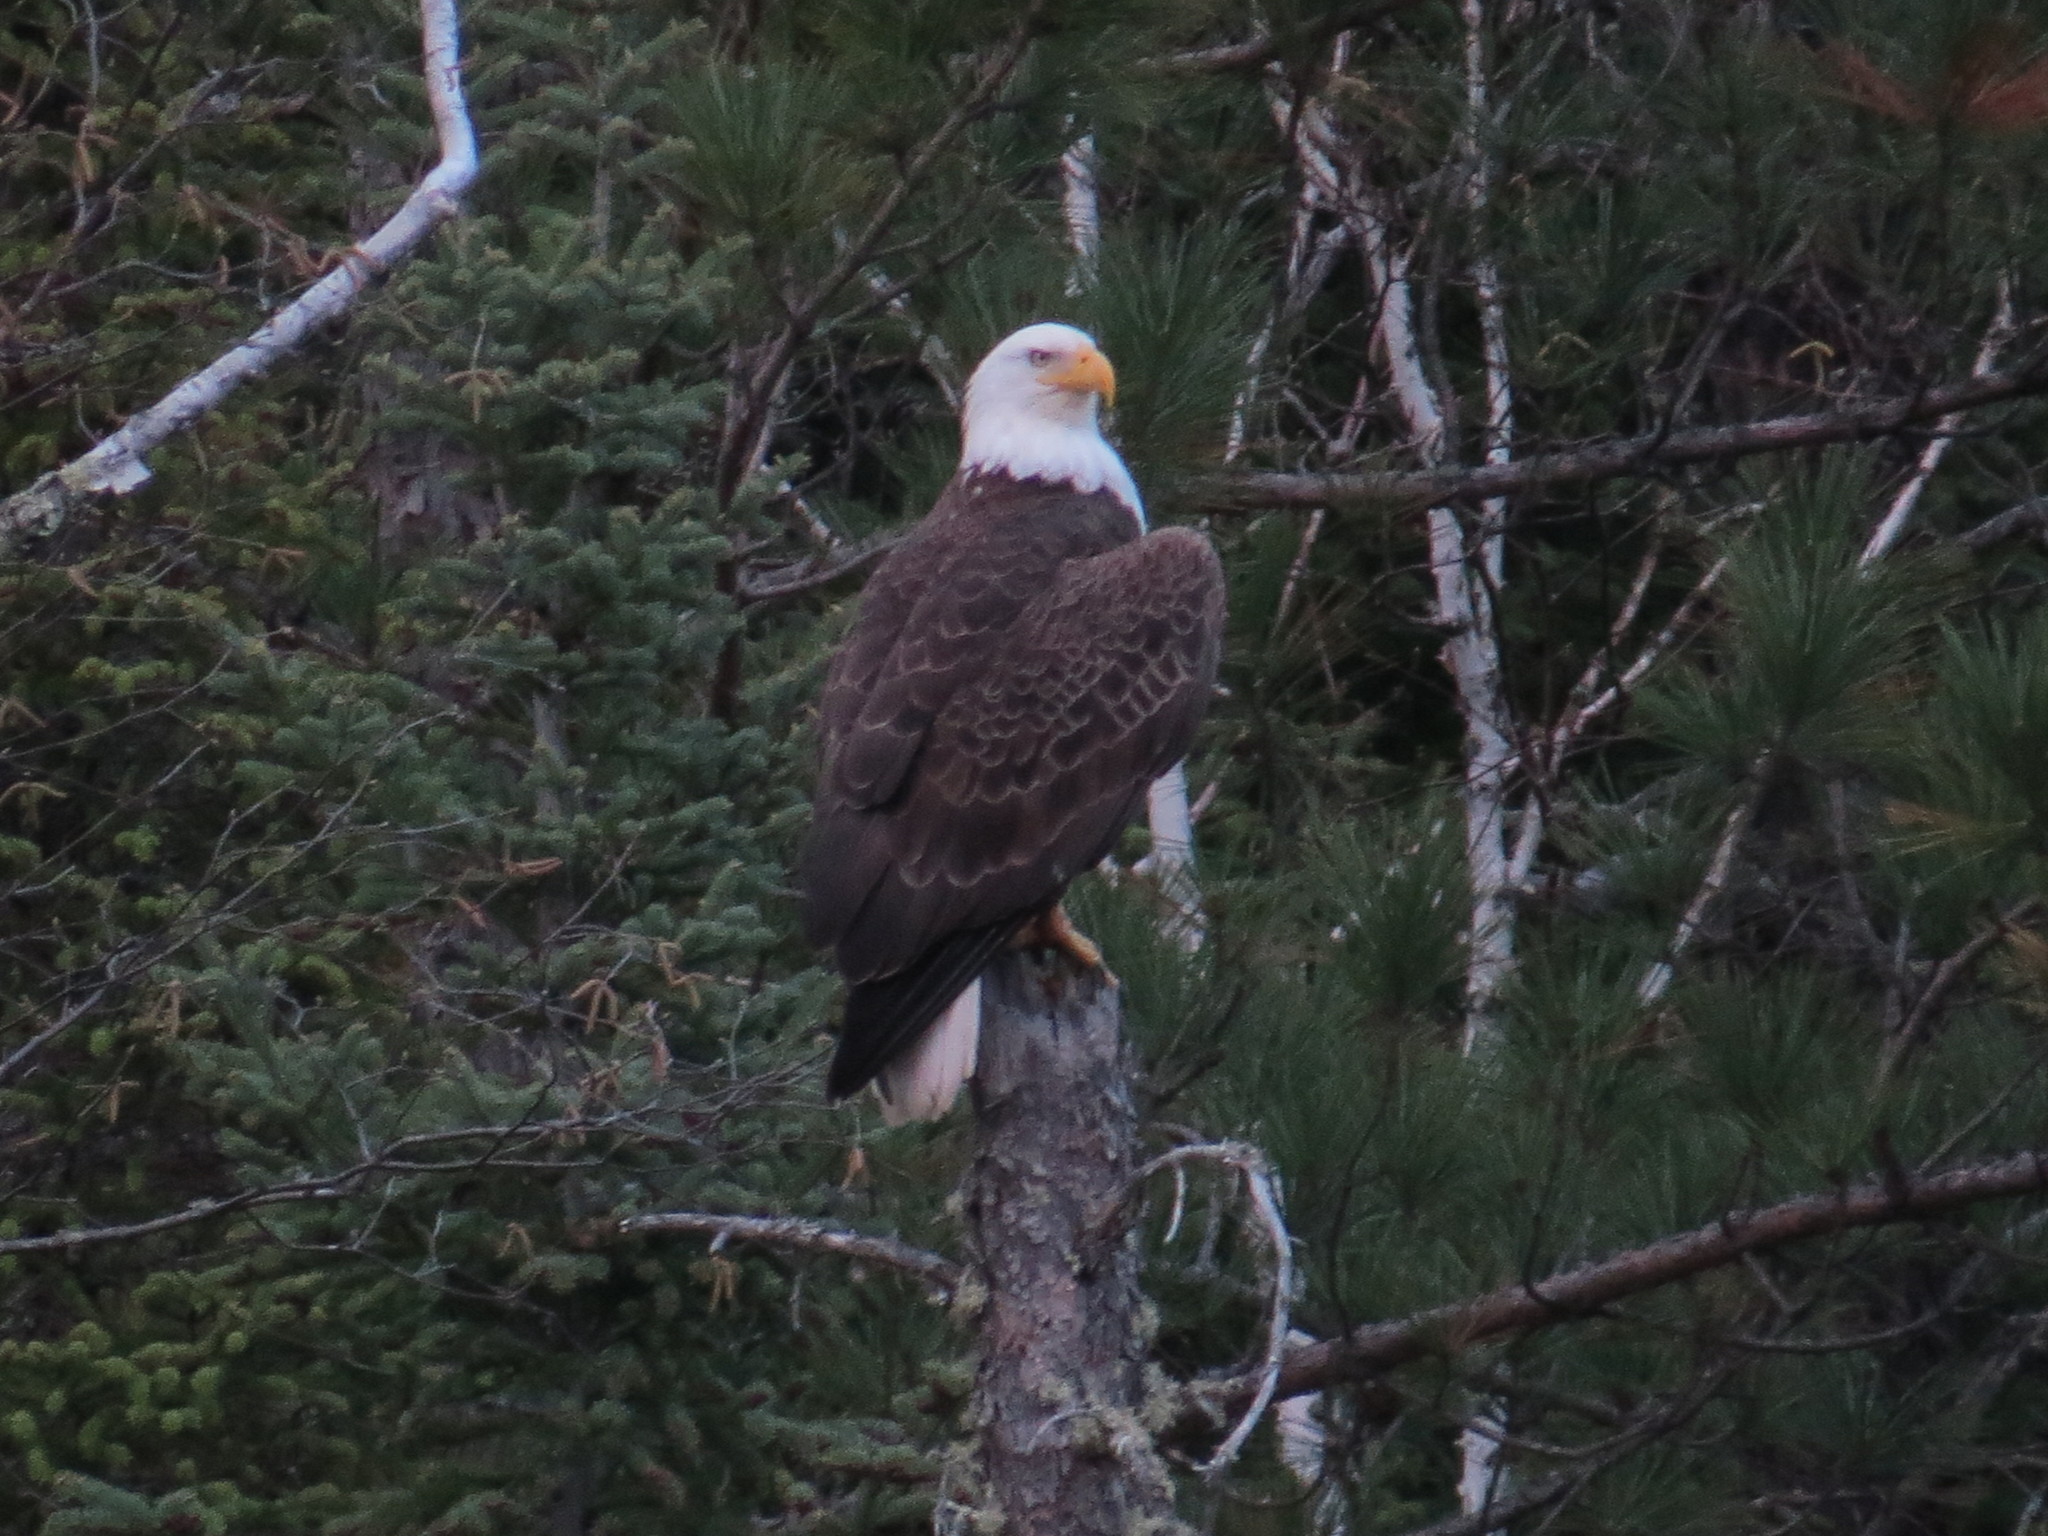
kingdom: Animalia
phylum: Chordata
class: Aves
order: Accipitriformes
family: Accipitridae
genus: Haliaeetus
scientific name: Haliaeetus leucocephalus
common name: Bald eagle
